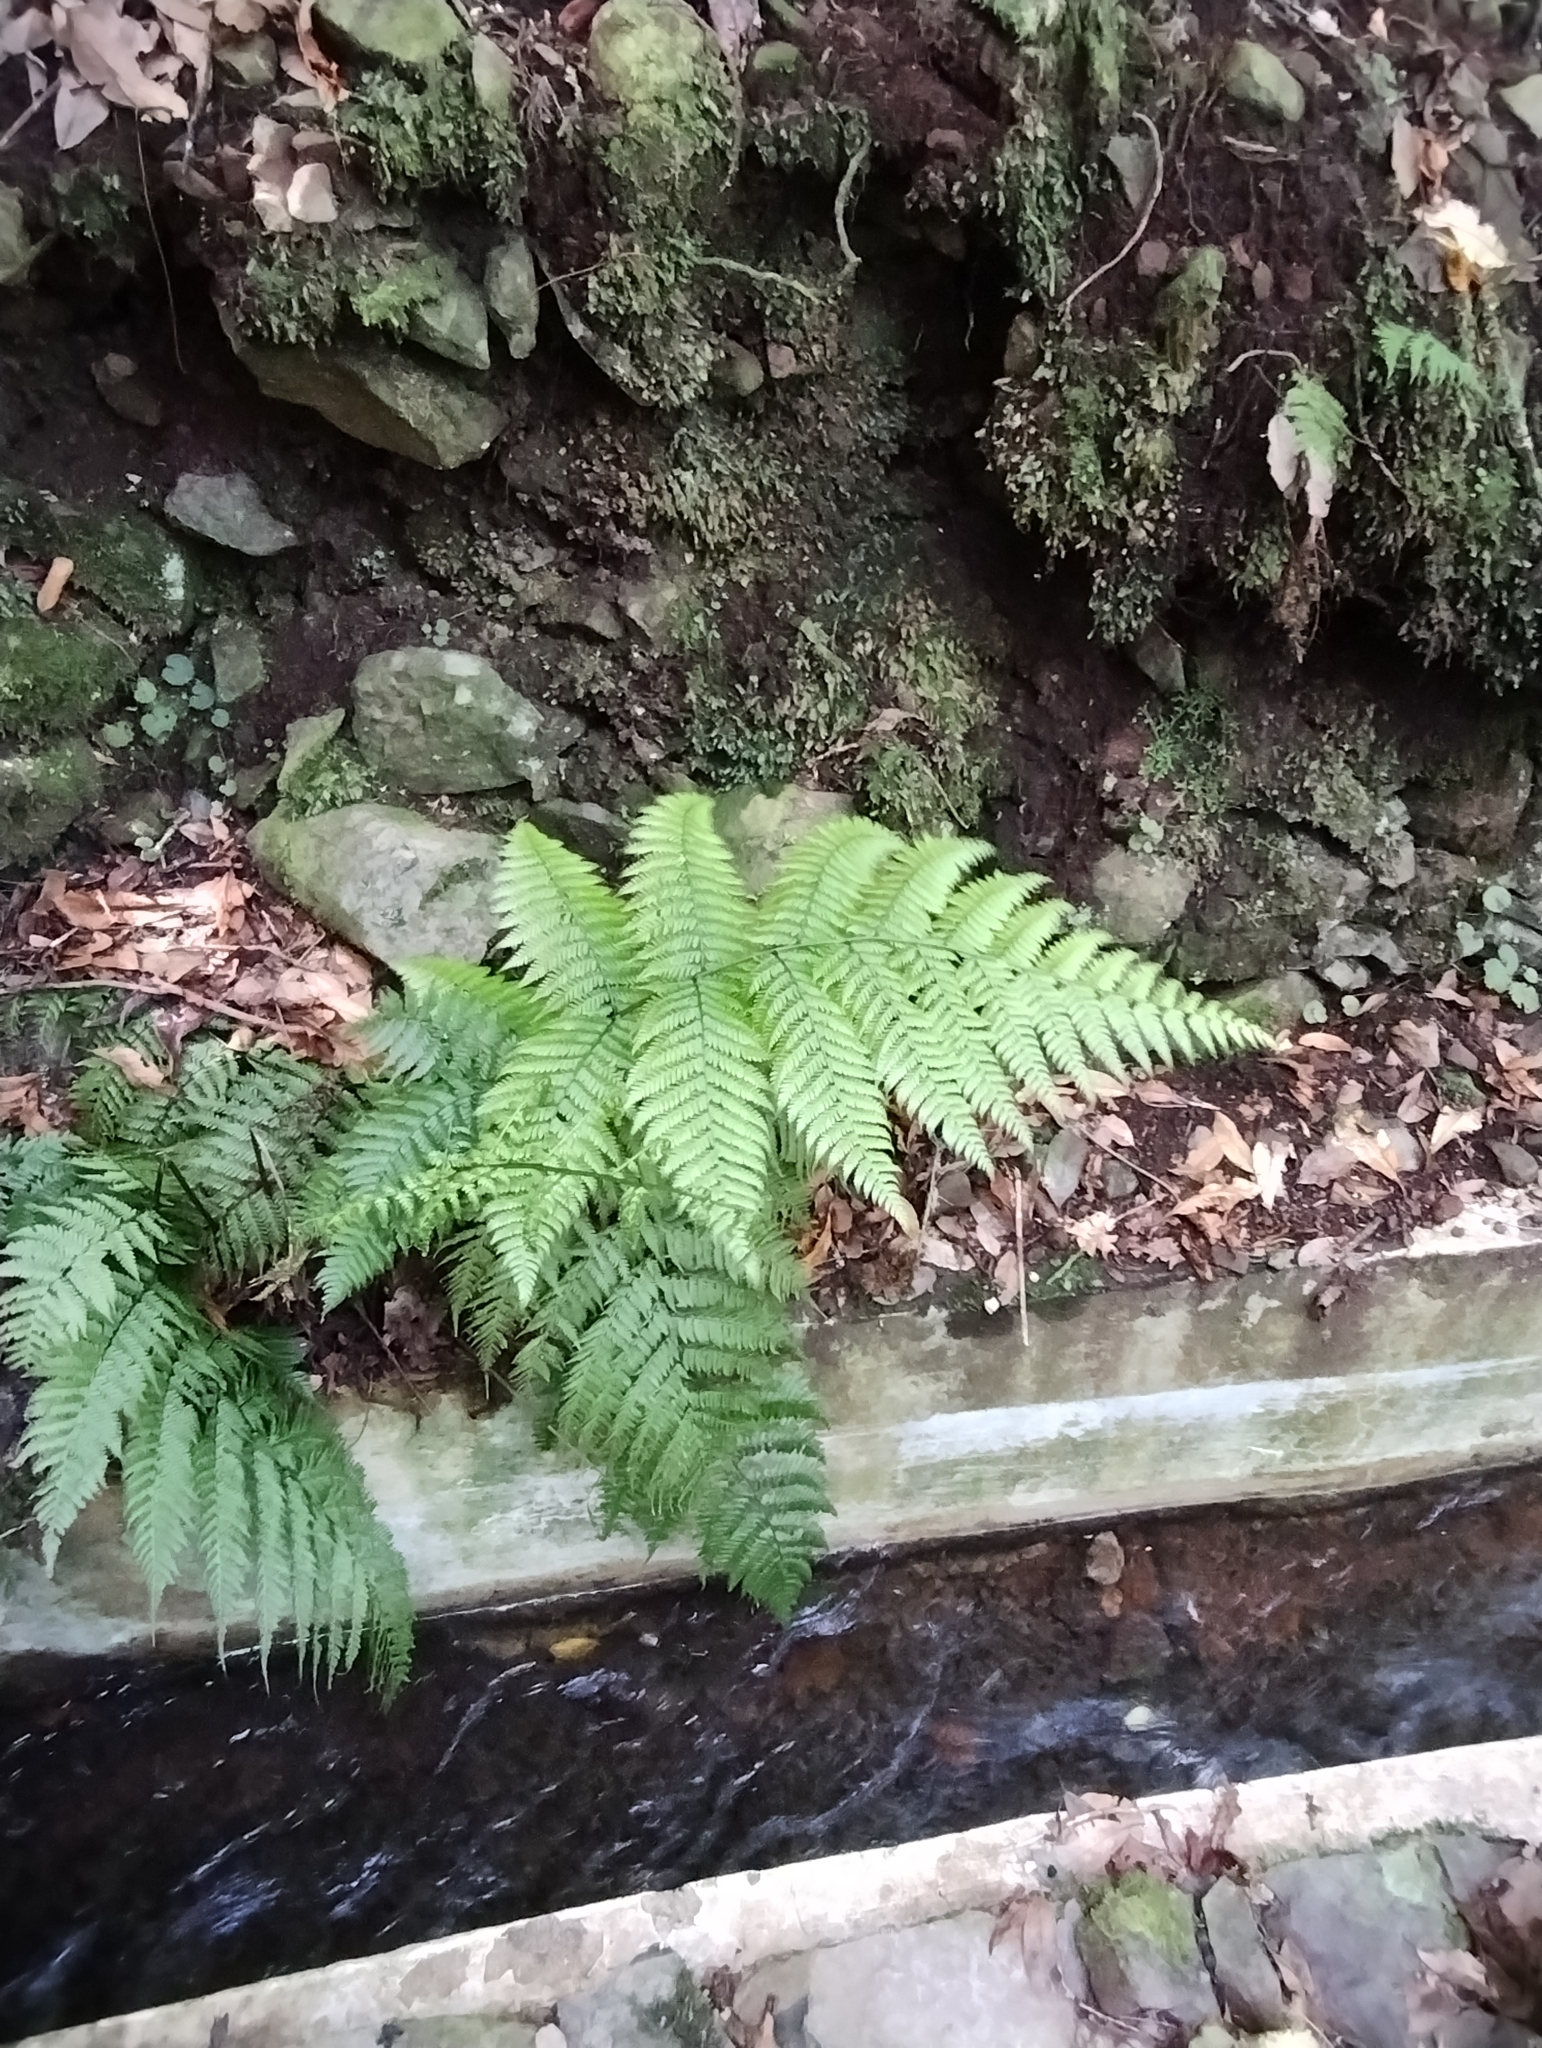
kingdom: Plantae
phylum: Tracheophyta
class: Polypodiopsida
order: Polypodiales
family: Athyriaceae
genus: Diplazium
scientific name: Diplazium caudatum
